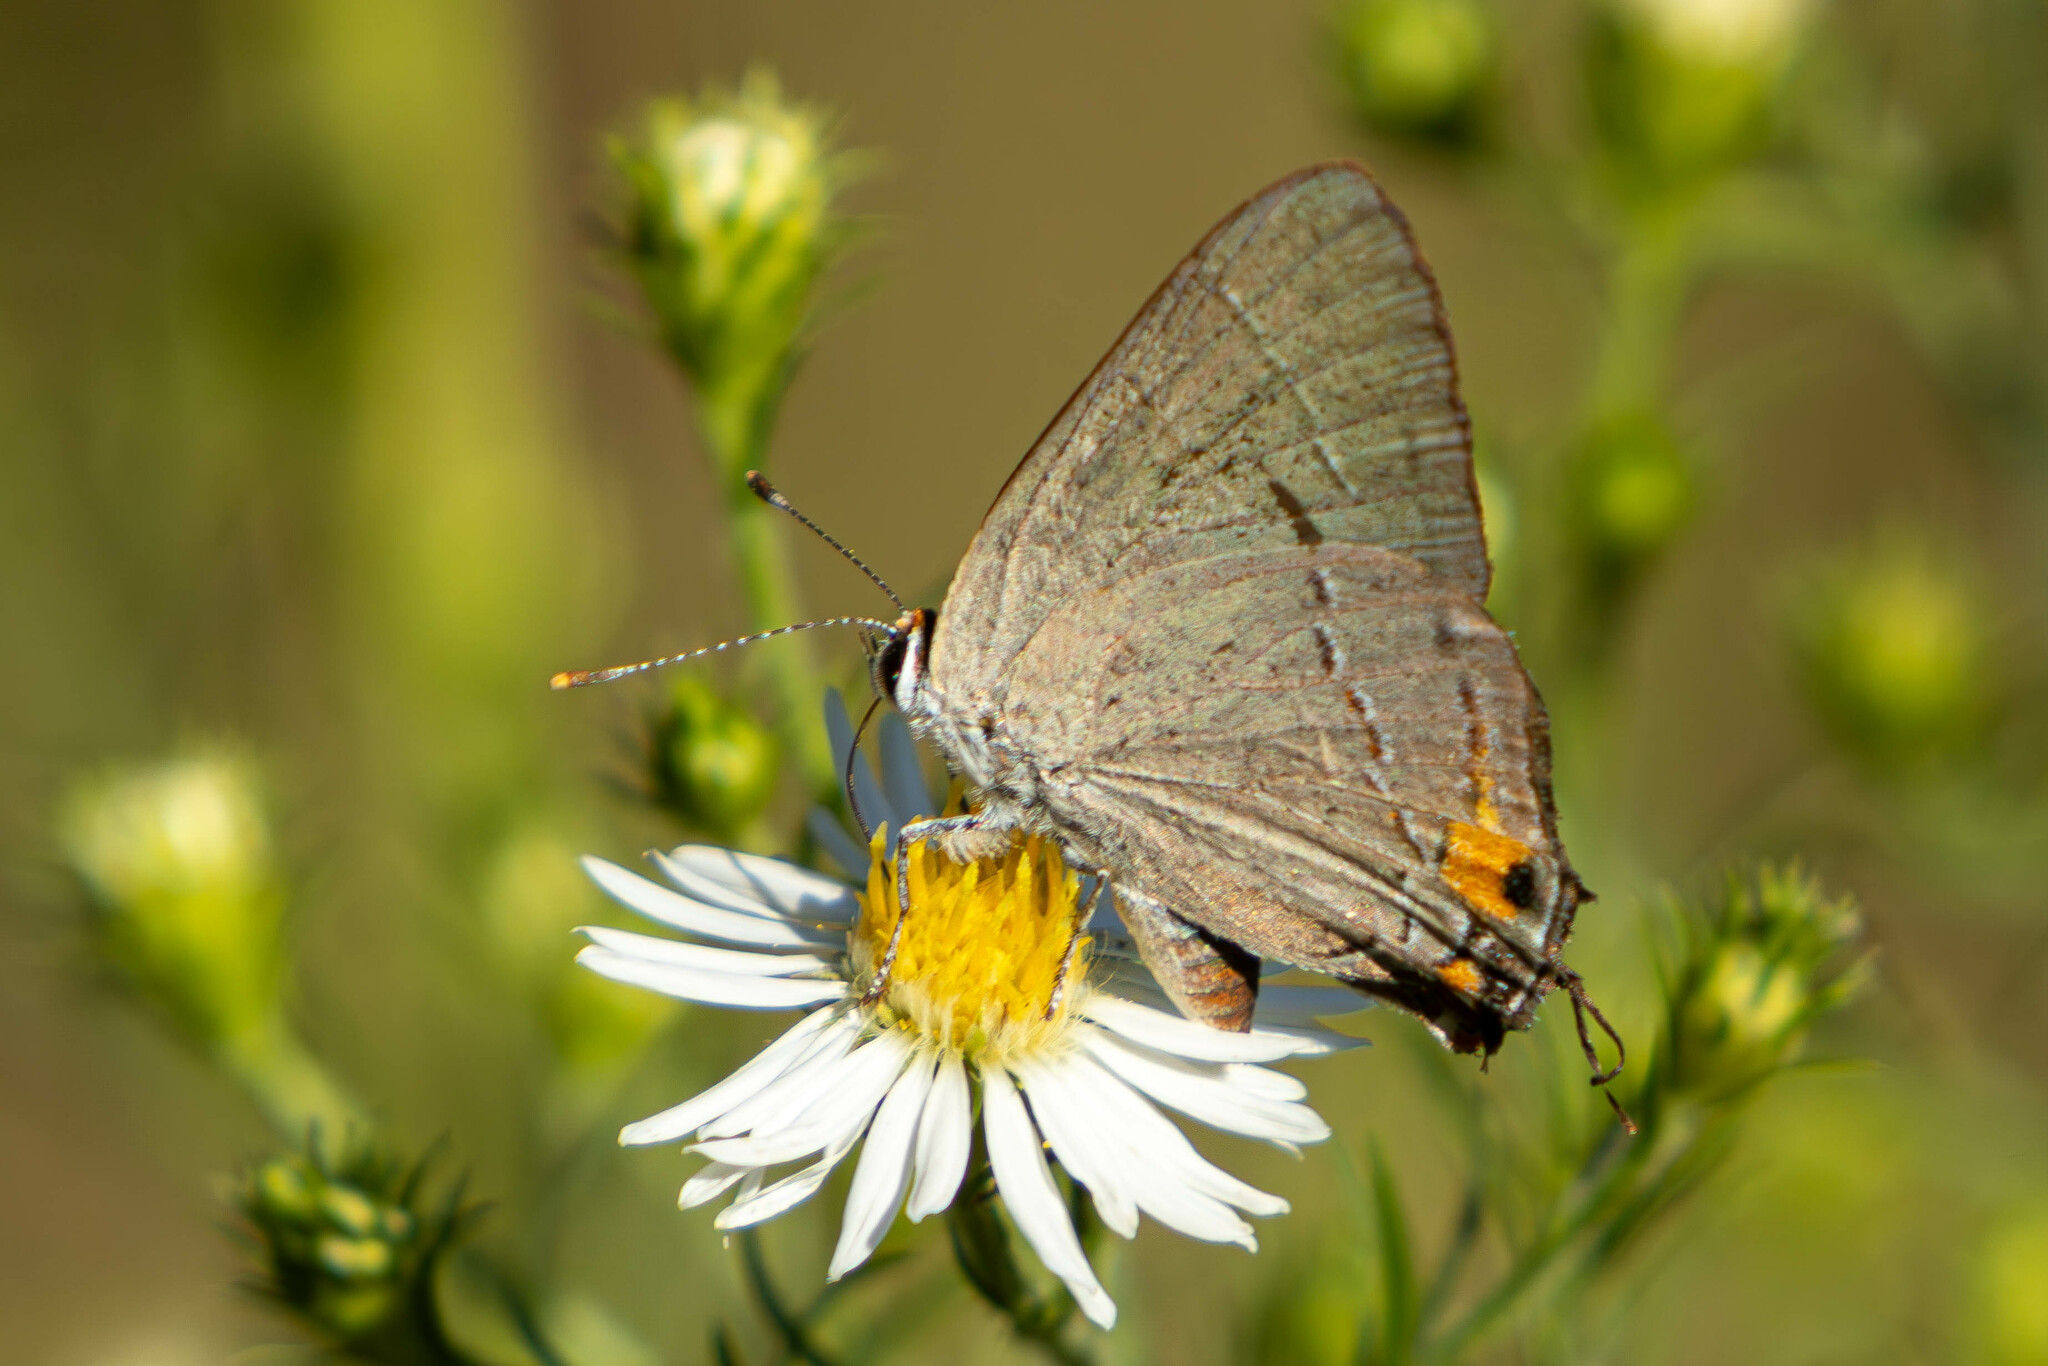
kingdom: Animalia
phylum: Arthropoda
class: Insecta
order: Lepidoptera
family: Lycaenidae
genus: Strymon
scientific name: Strymon melinus
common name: Gray hairstreak
